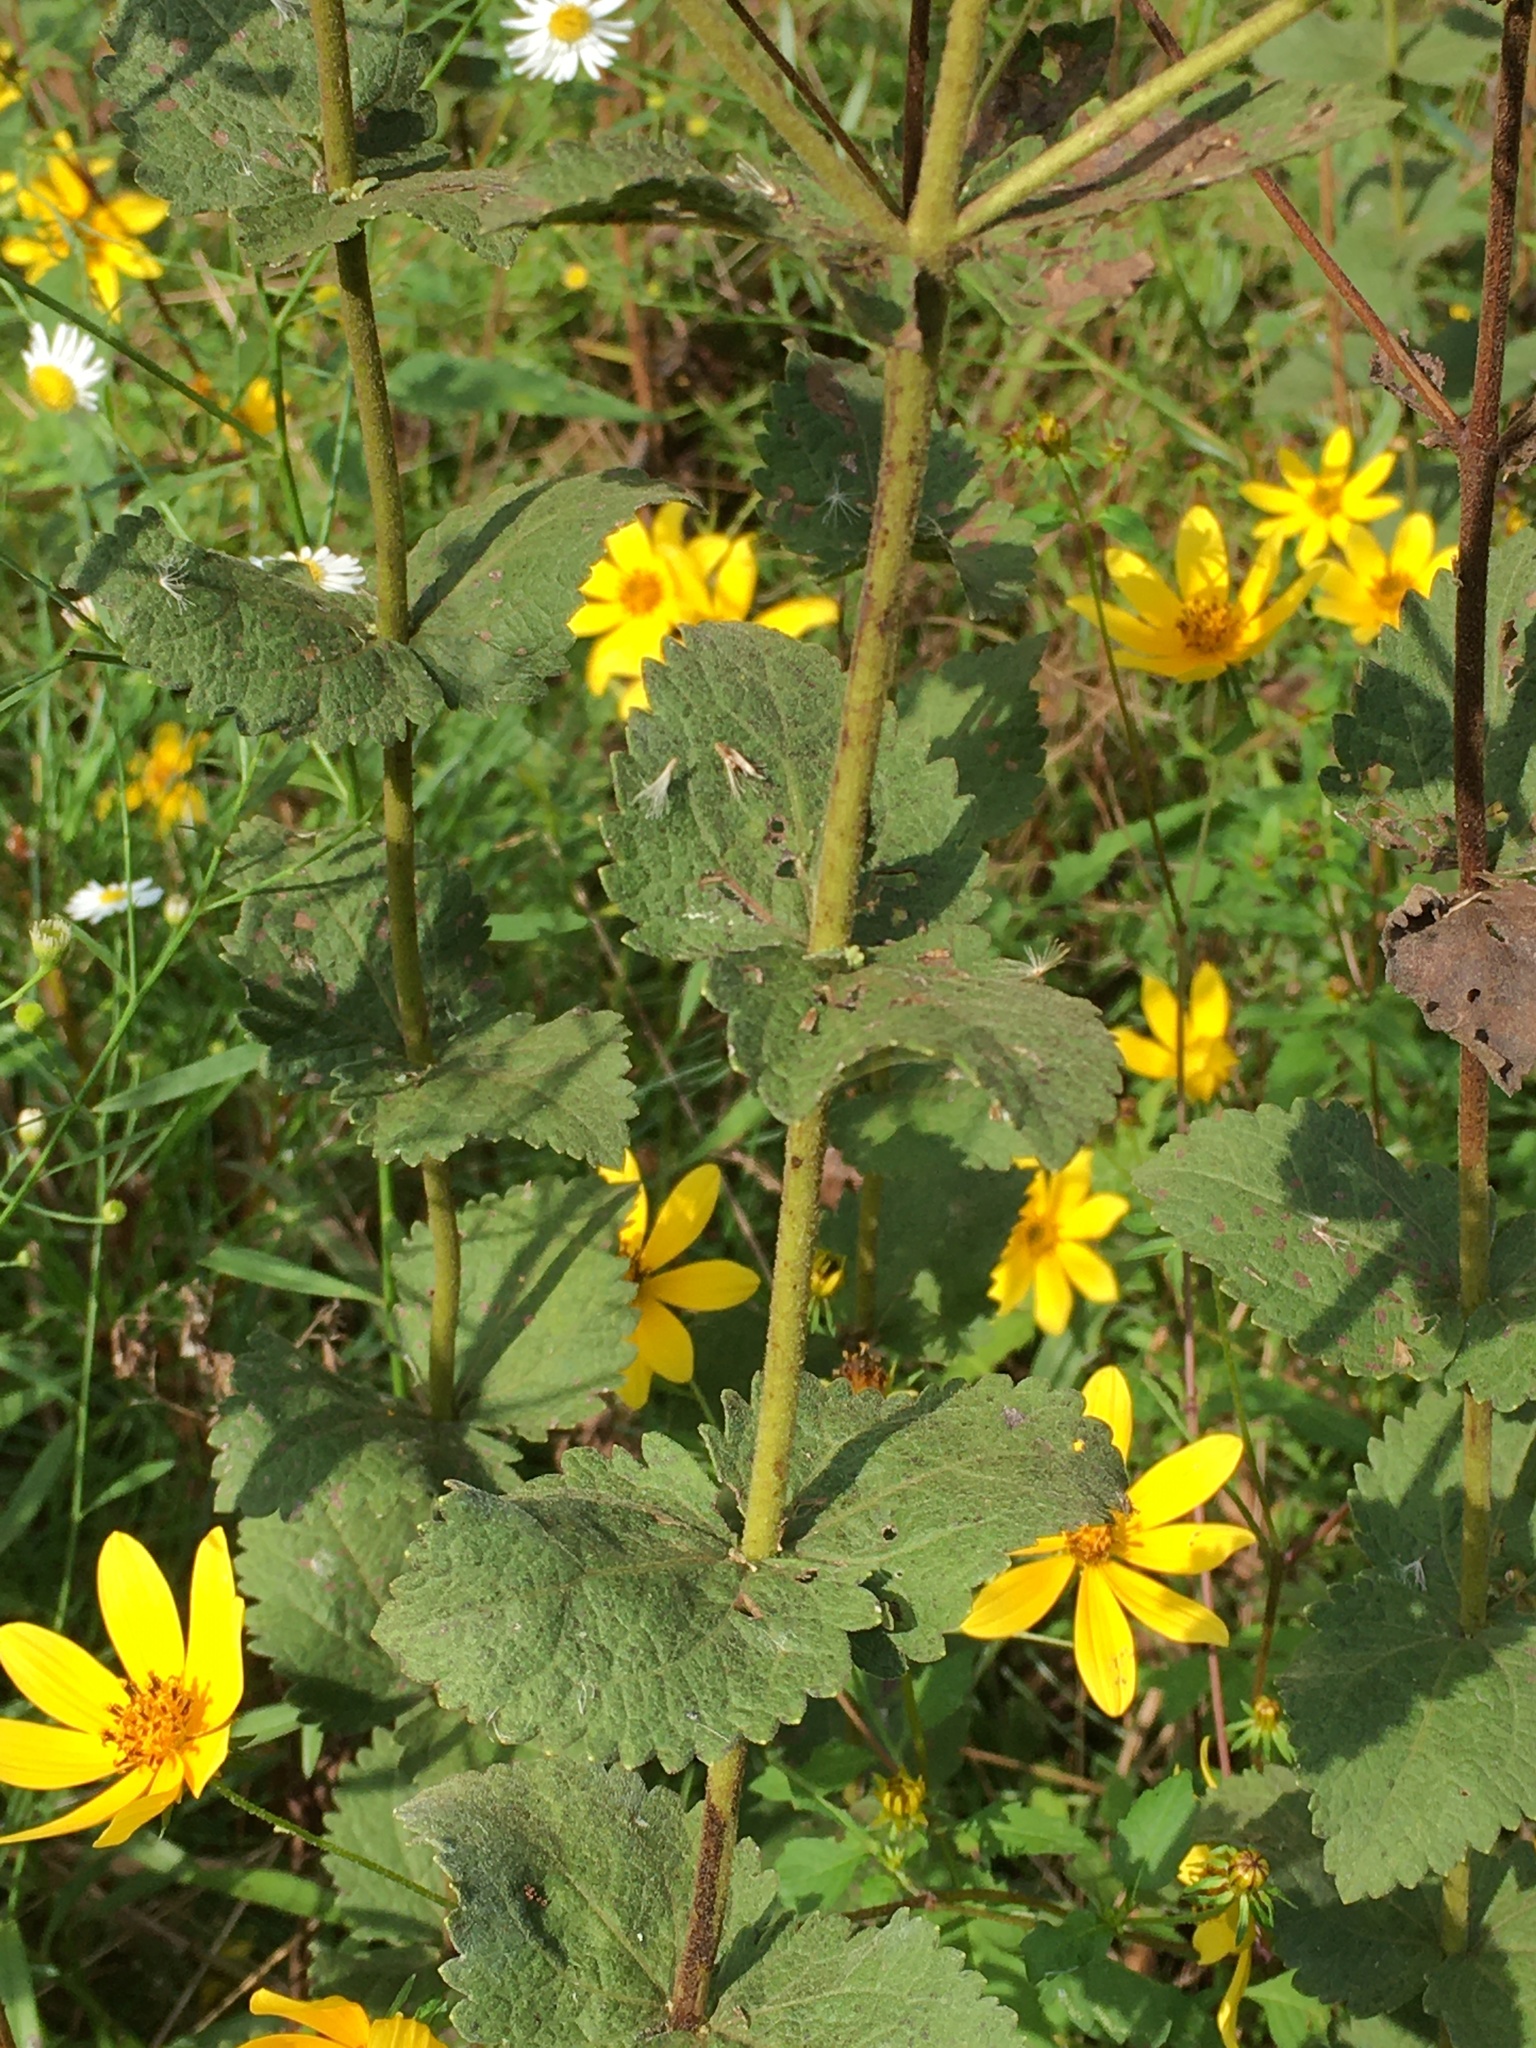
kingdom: Plantae
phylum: Tracheophyta
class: Magnoliopsida
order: Asterales
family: Asteraceae
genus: Eupatorium
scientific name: Eupatorium rotundifolium
